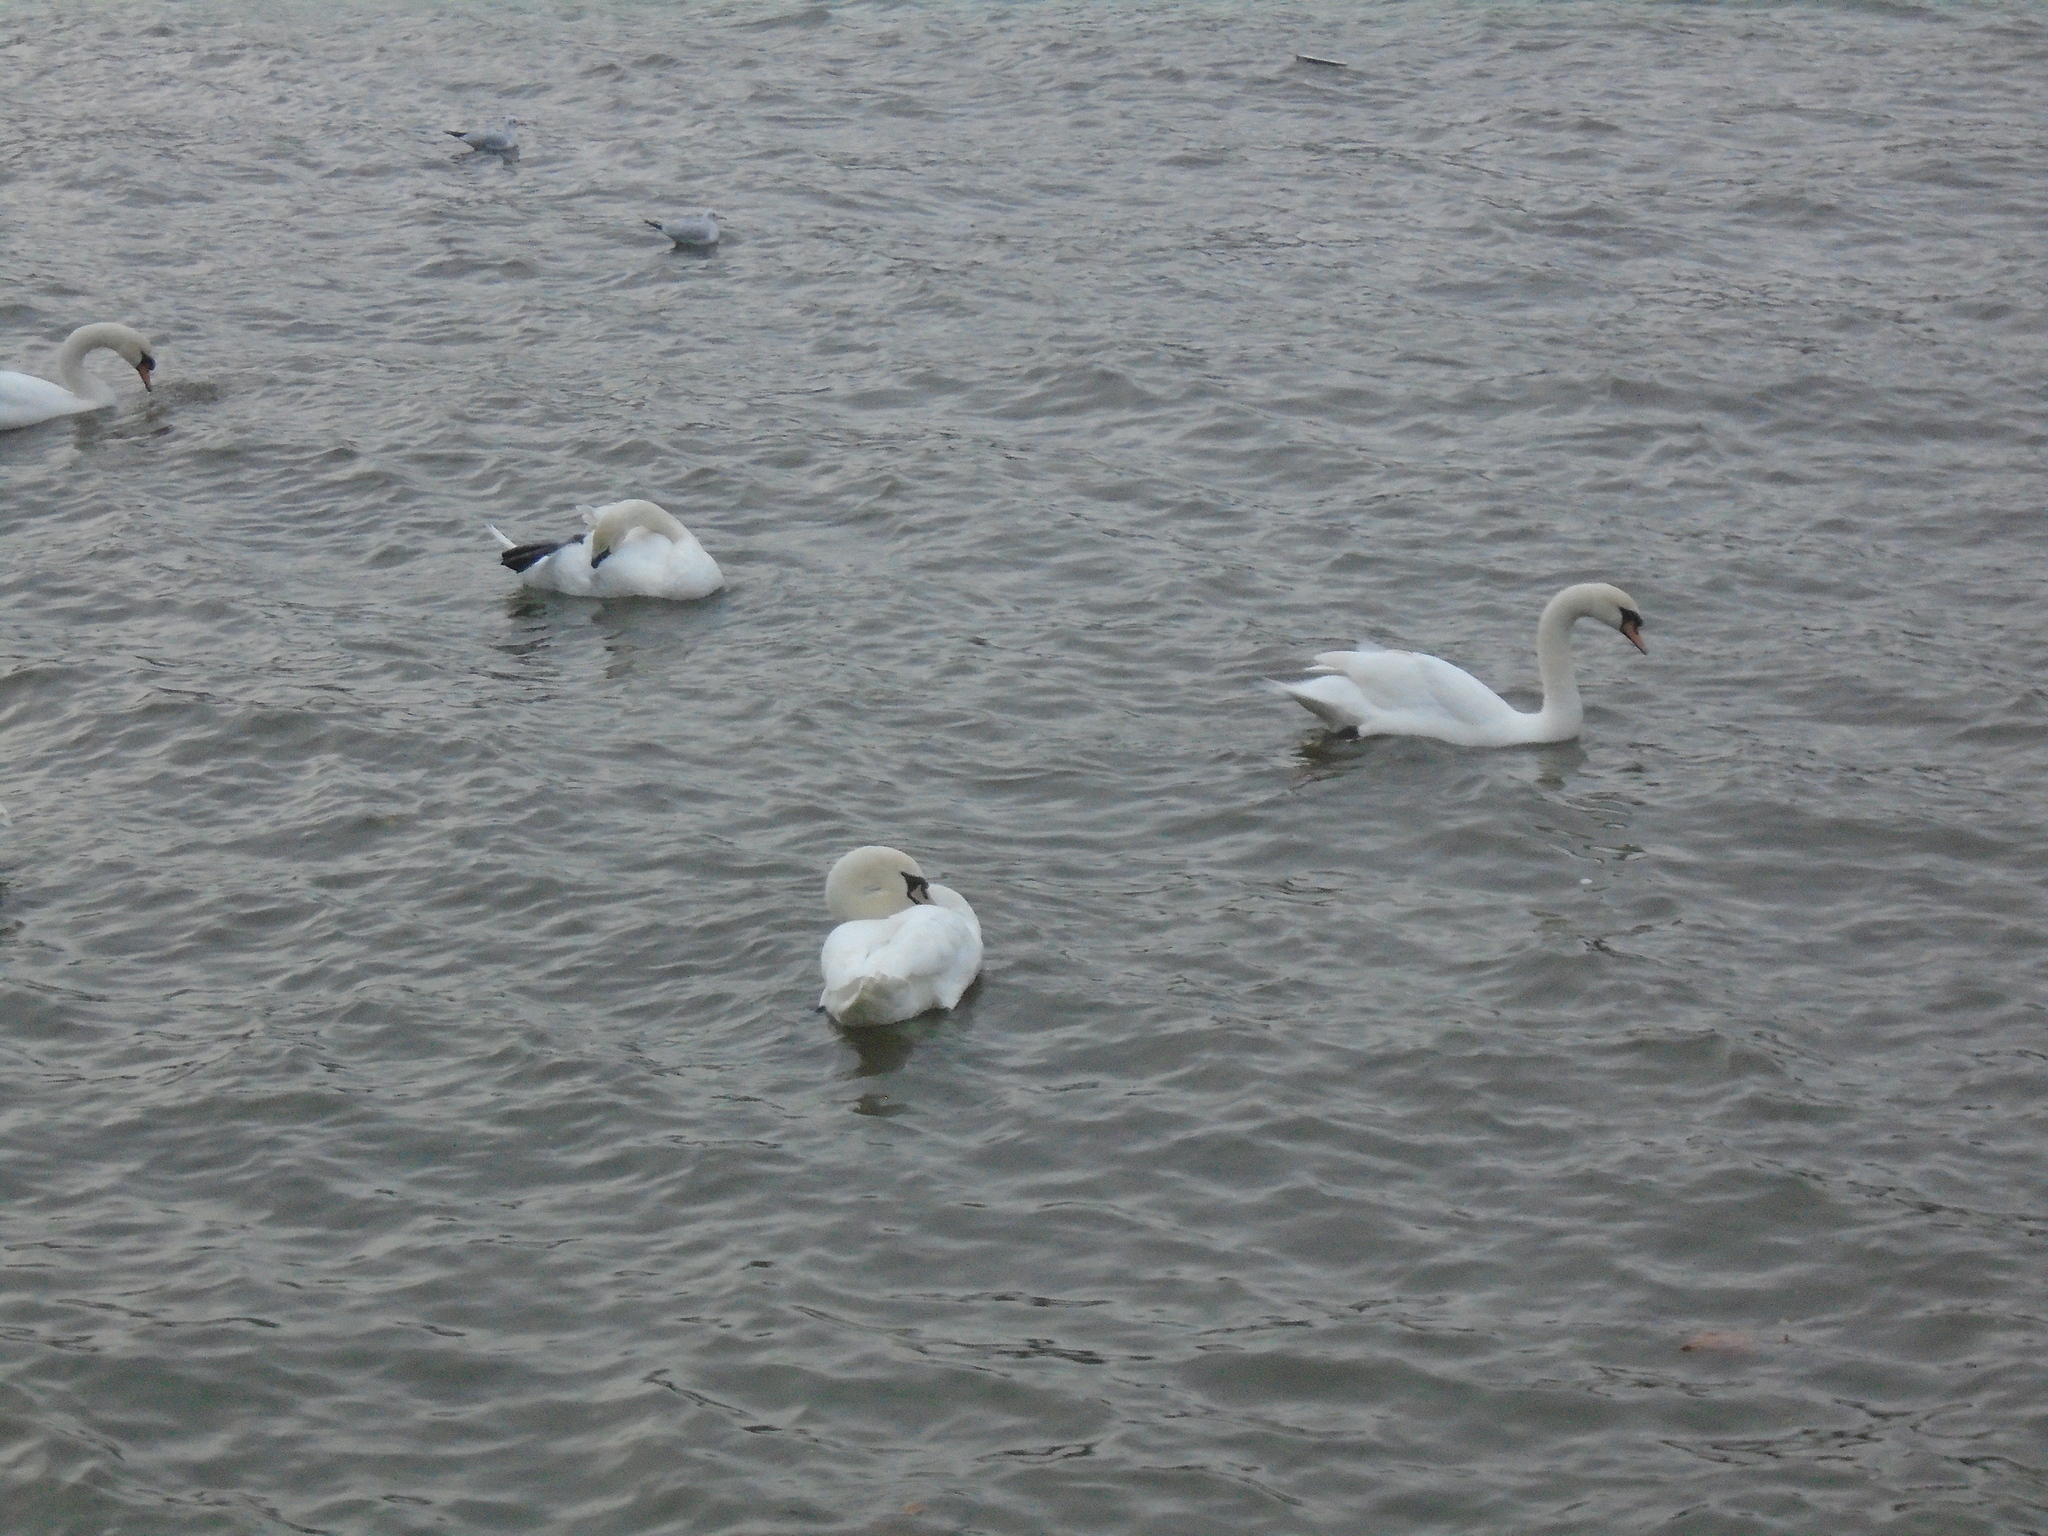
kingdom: Animalia
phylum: Chordata
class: Aves
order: Anseriformes
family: Anatidae
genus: Cygnus
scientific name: Cygnus olor
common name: Mute swan
